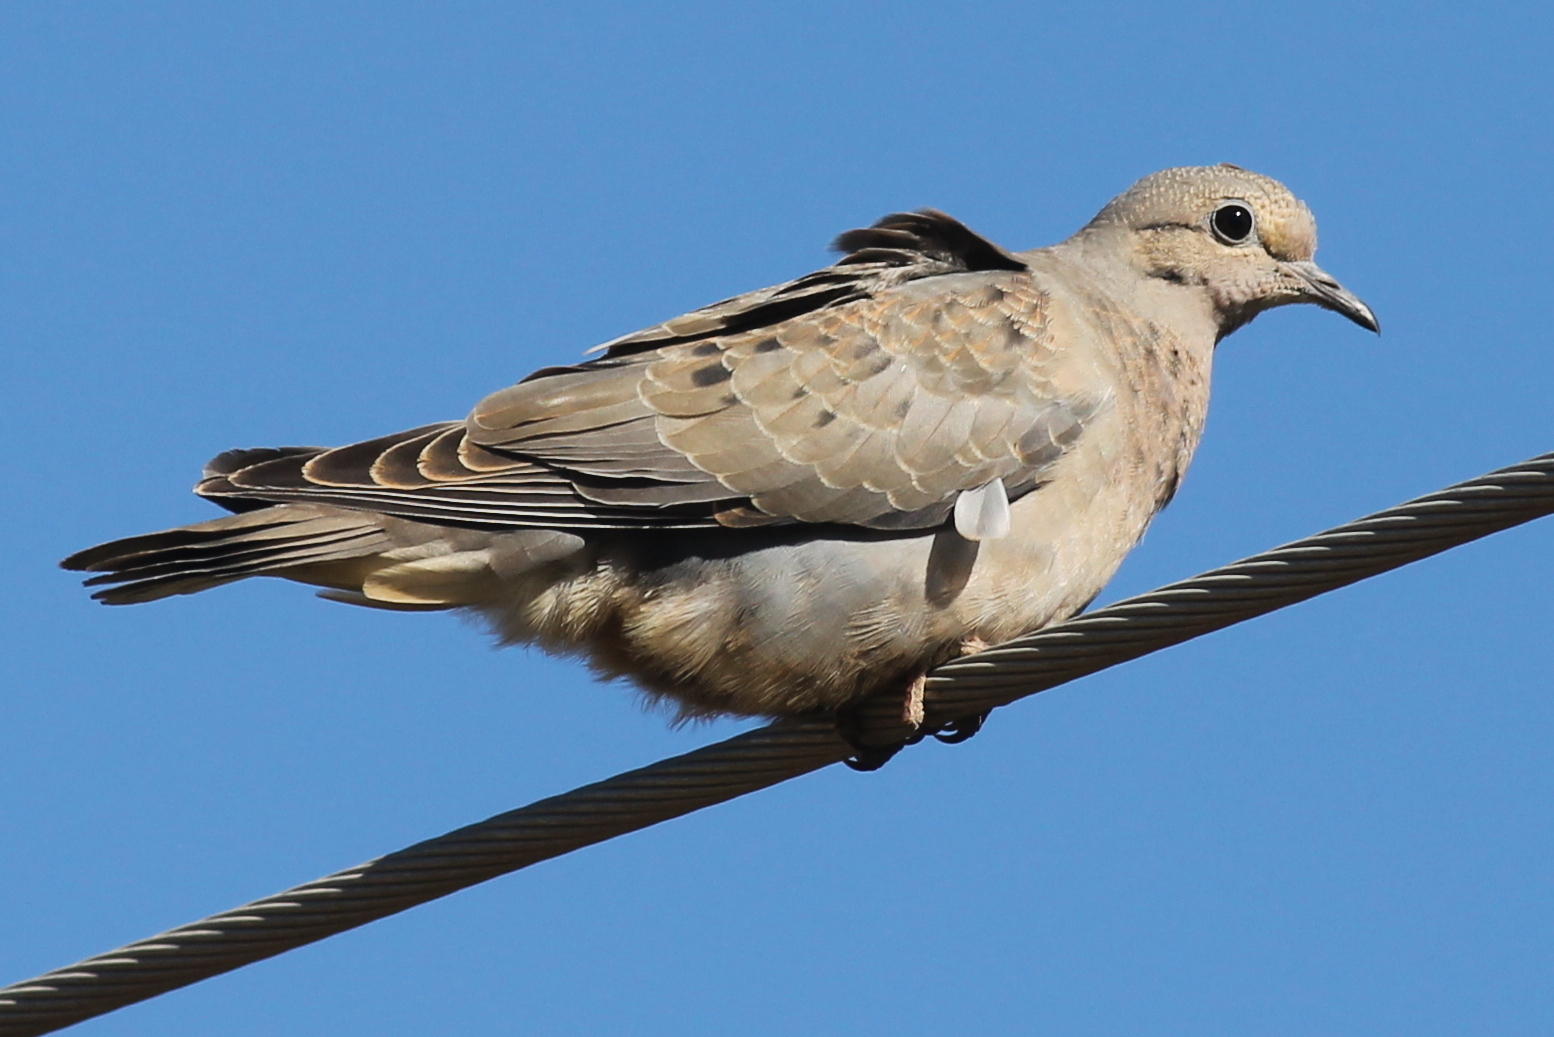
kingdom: Animalia
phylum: Chordata
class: Aves
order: Columbiformes
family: Columbidae
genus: Zenaida
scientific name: Zenaida auriculata
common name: Eared dove
